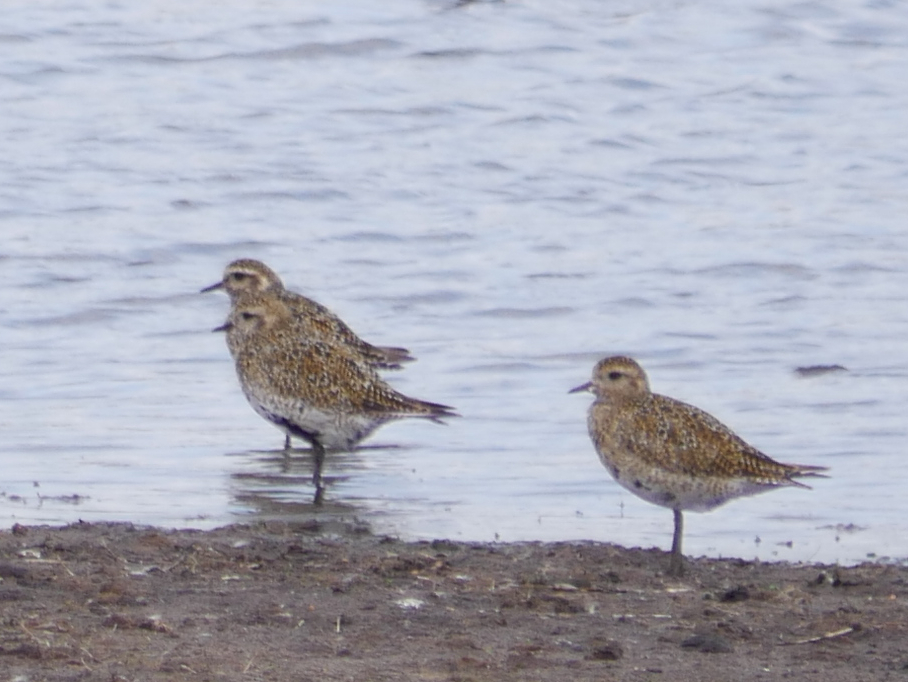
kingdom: Animalia
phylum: Chordata
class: Aves
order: Charadriiformes
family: Charadriidae
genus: Pluvialis
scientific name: Pluvialis apricaria
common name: European golden plover
